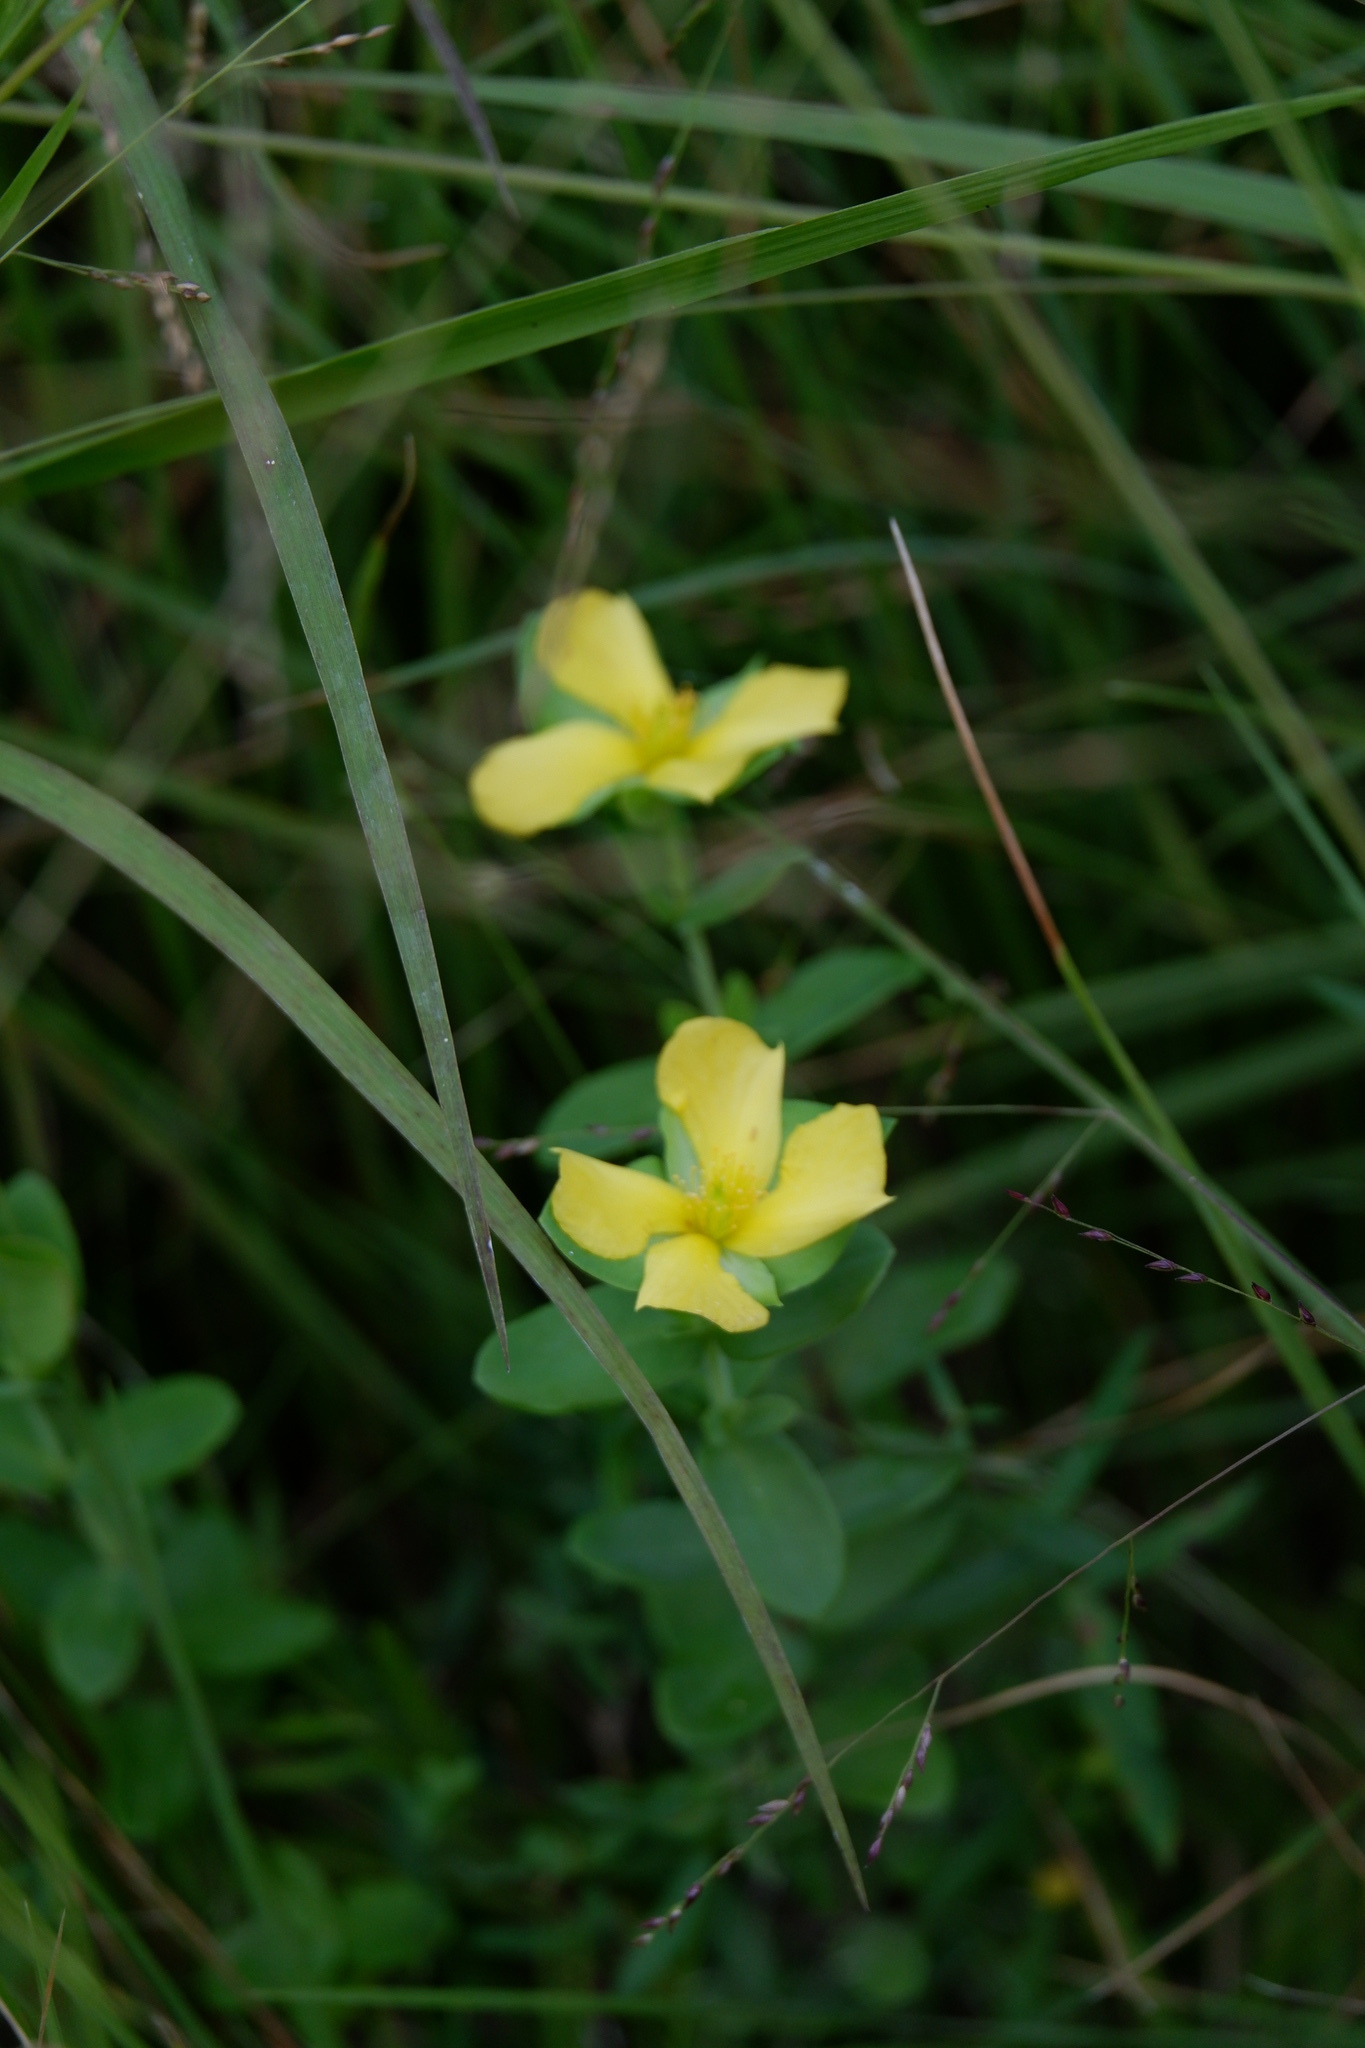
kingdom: Plantae
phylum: Tracheophyta
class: Magnoliopsida
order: Malpighiales
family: Hypericaceae
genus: Hypericum
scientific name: Hypericum crux-andreae
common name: St.-peter's-wort
